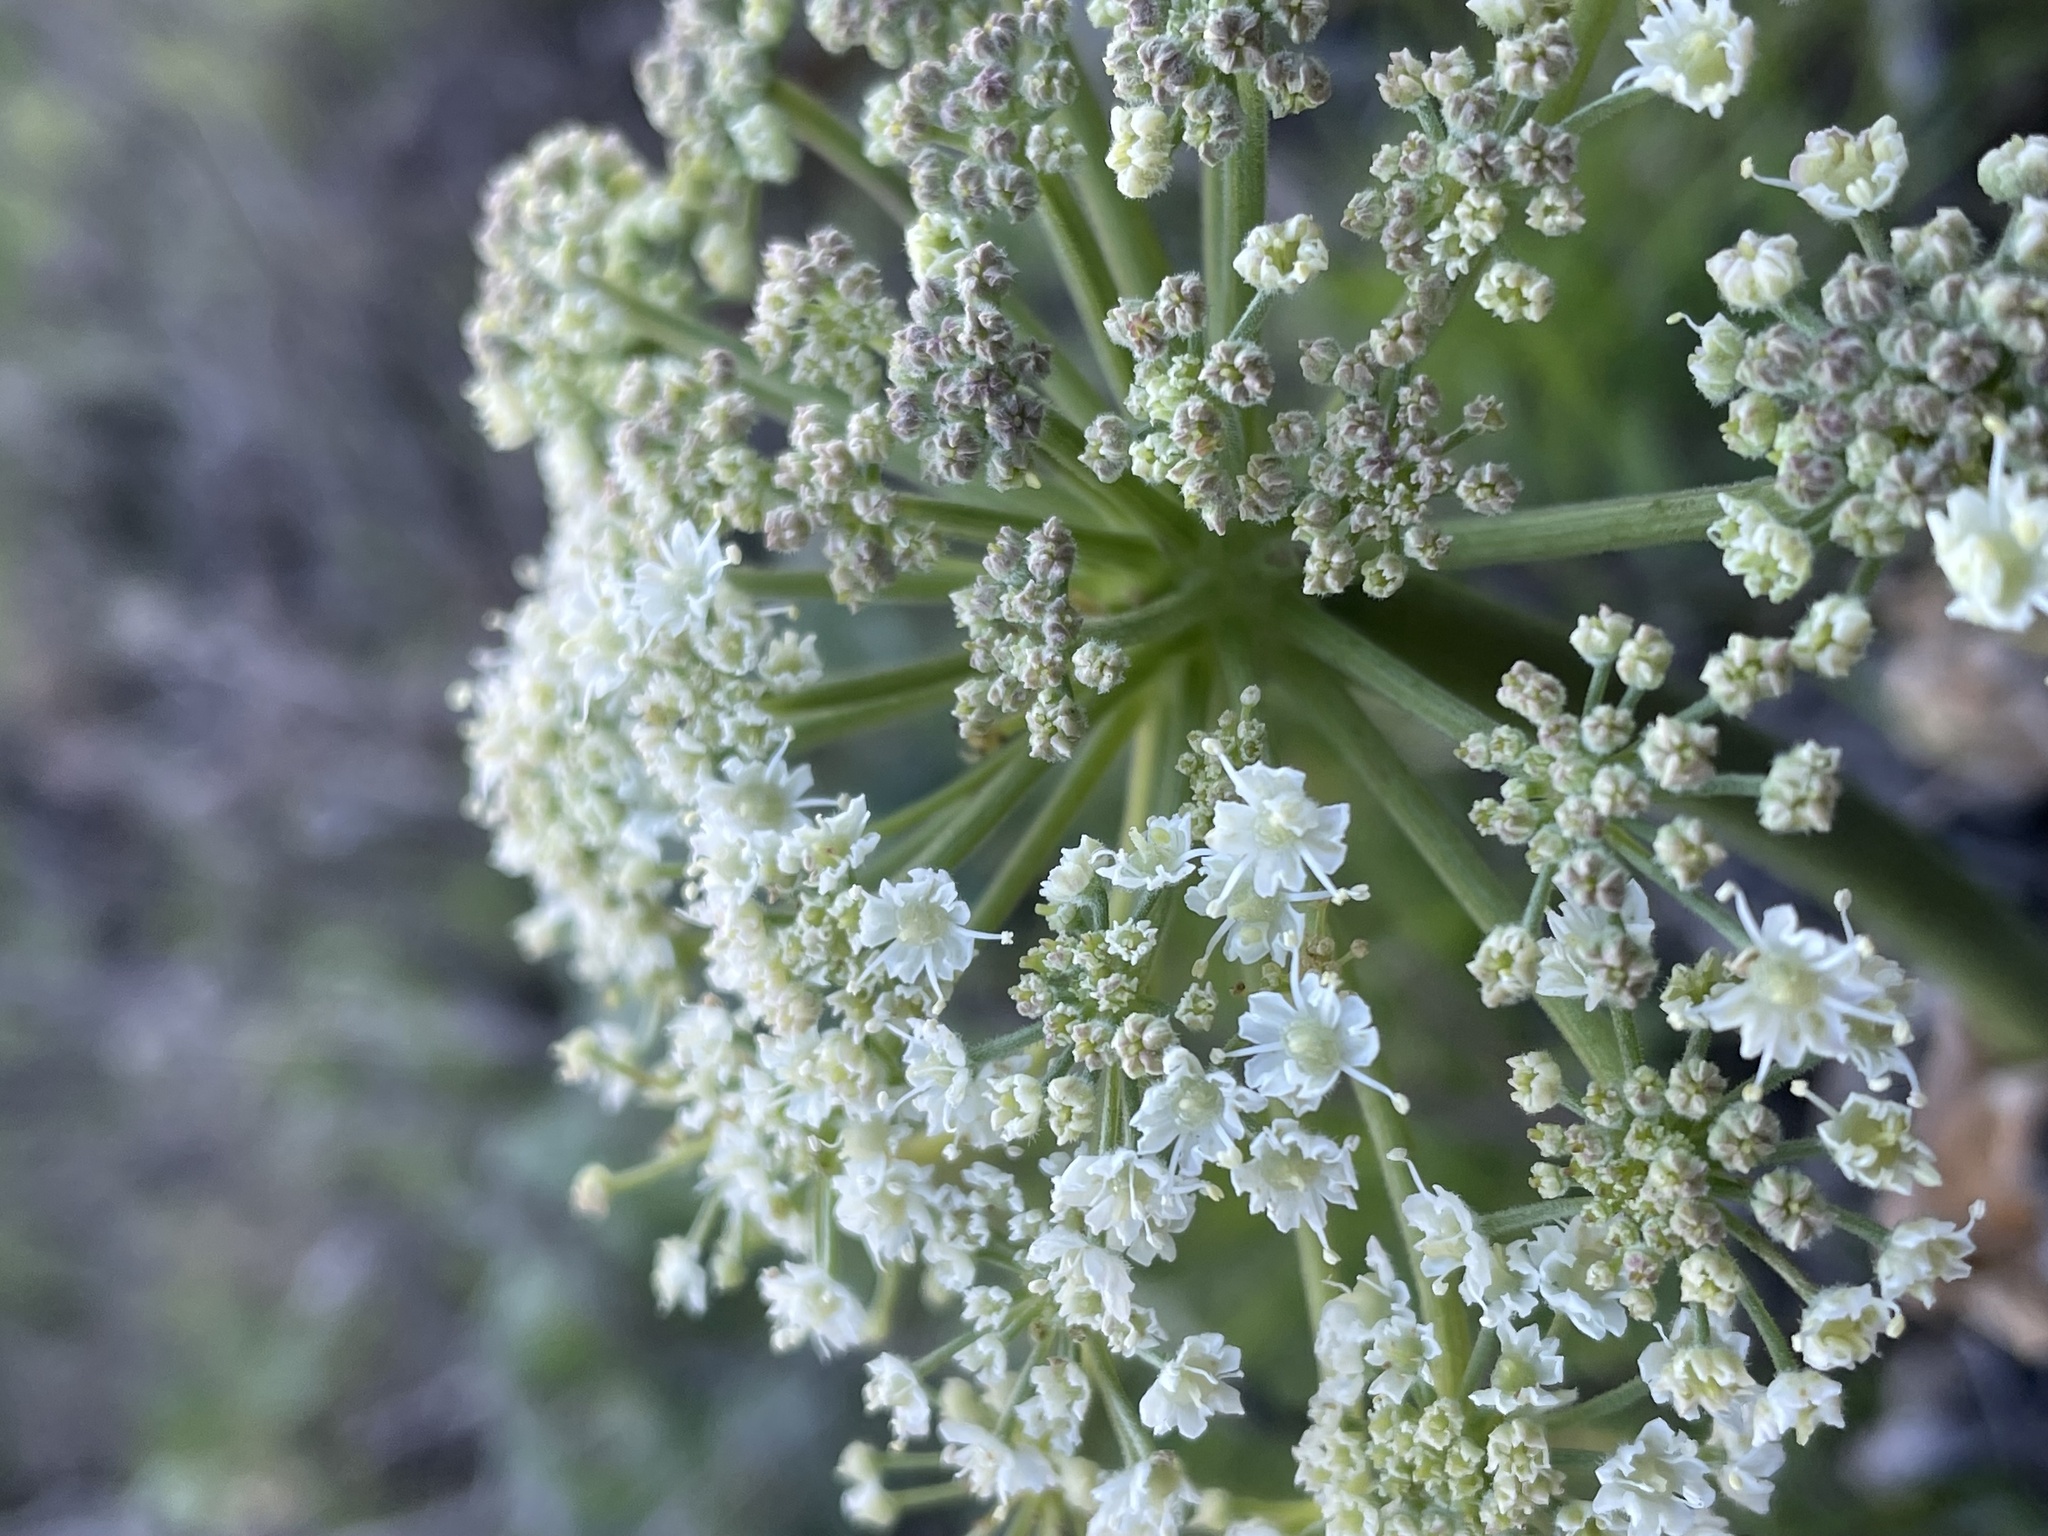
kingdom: Plantae
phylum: Tracheophyta
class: Magnoliopsida
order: Apiales
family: Apiaceae
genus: Heracleum
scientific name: Heracleum maximum
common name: American cow parsnip
